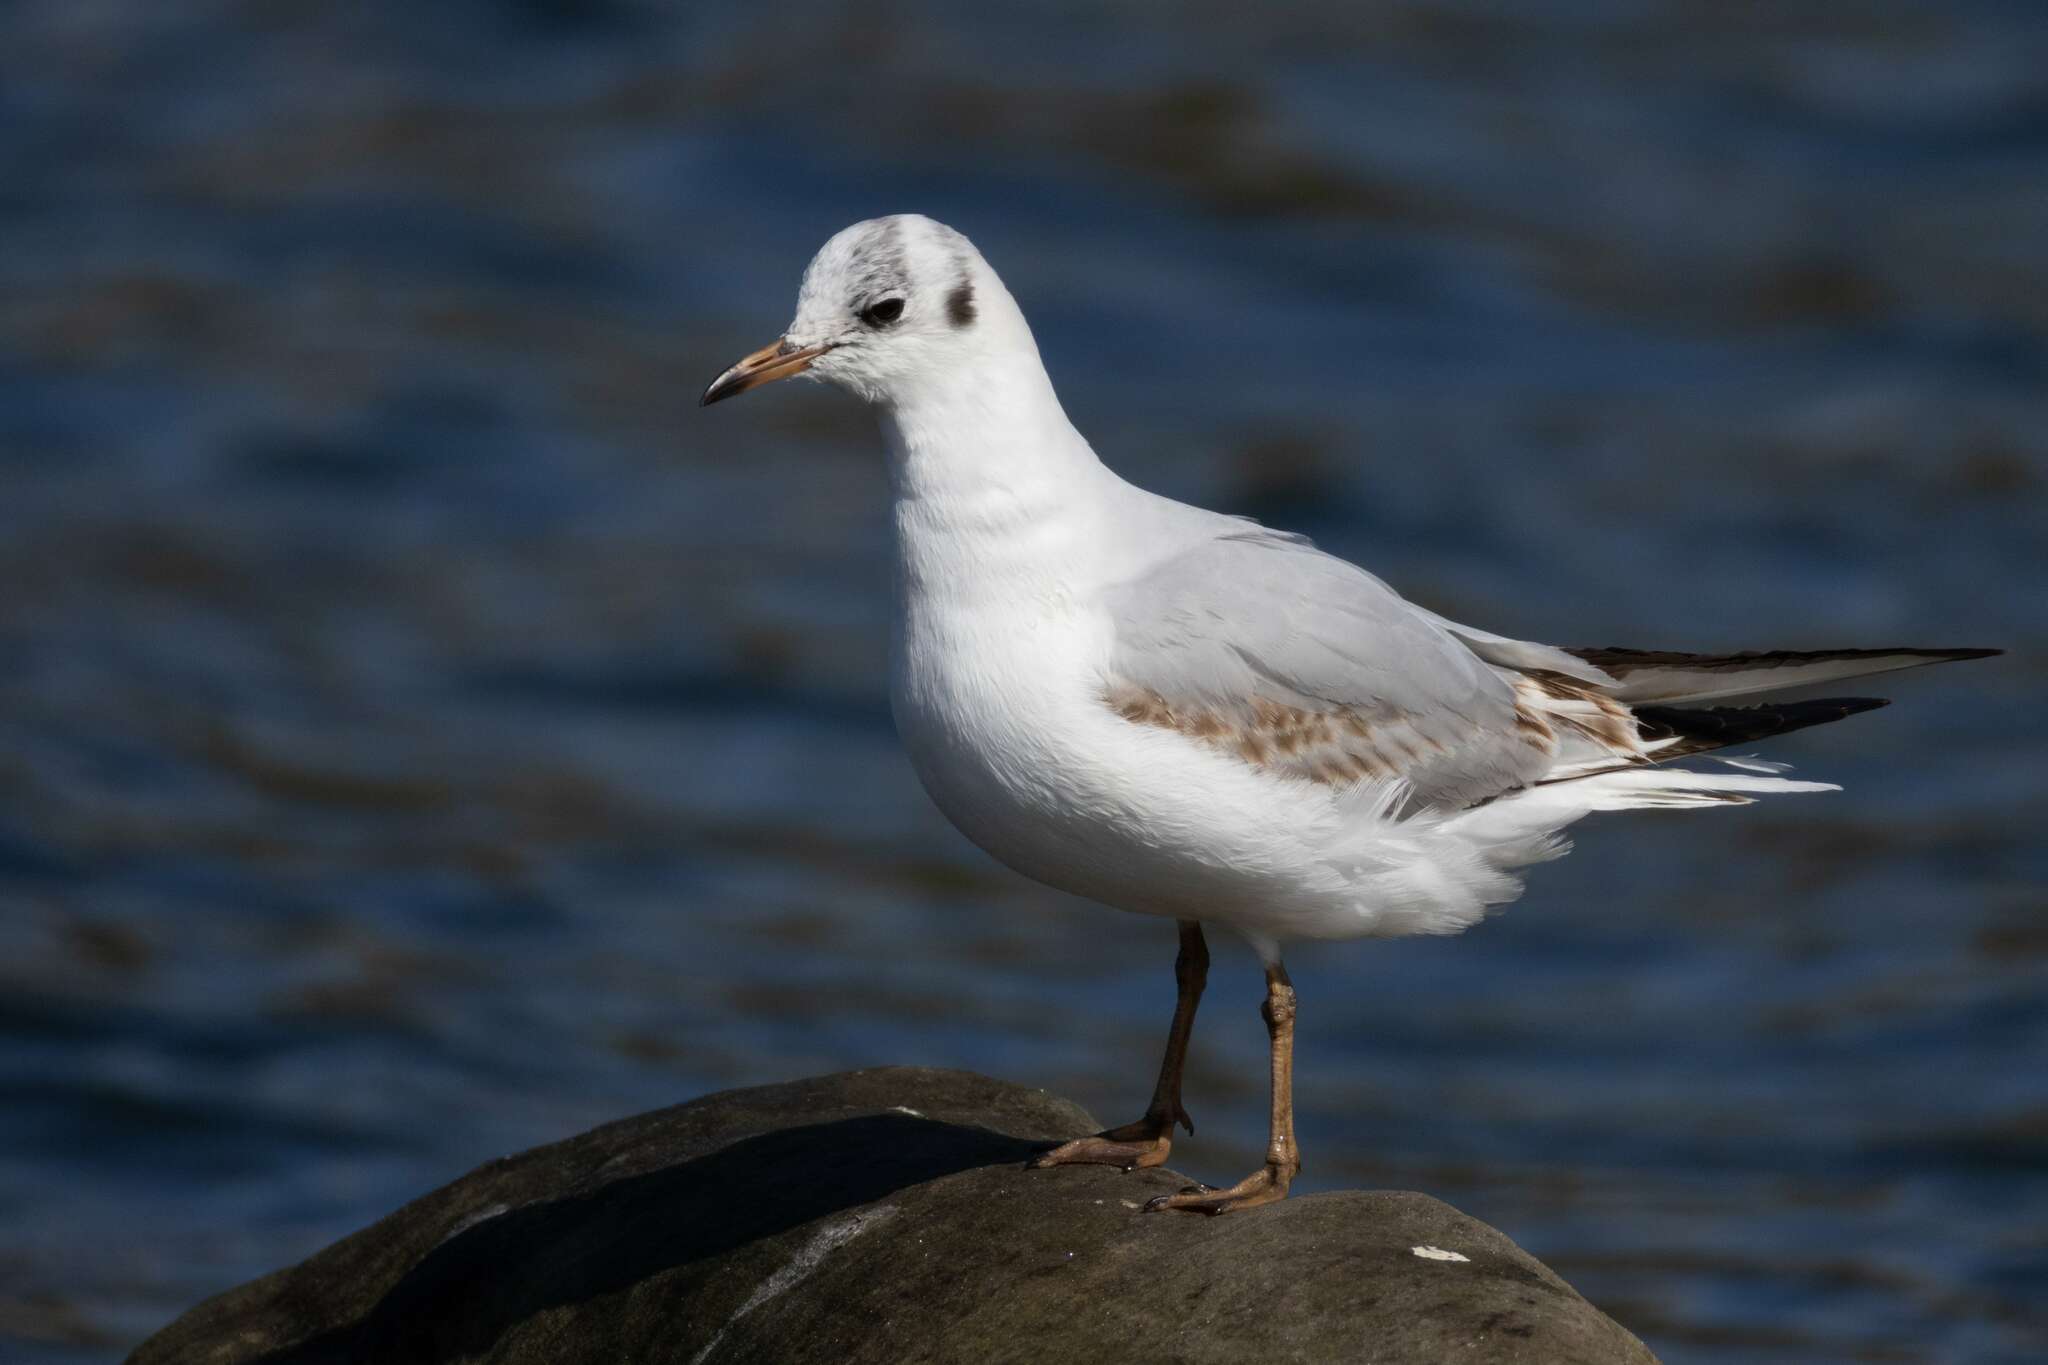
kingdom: Animalia
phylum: Chordata
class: Aves
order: Charadriiformes
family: Laridae
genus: Chroicocephalus
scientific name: Chroicocephalus ridibundus
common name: Black-headed gull
